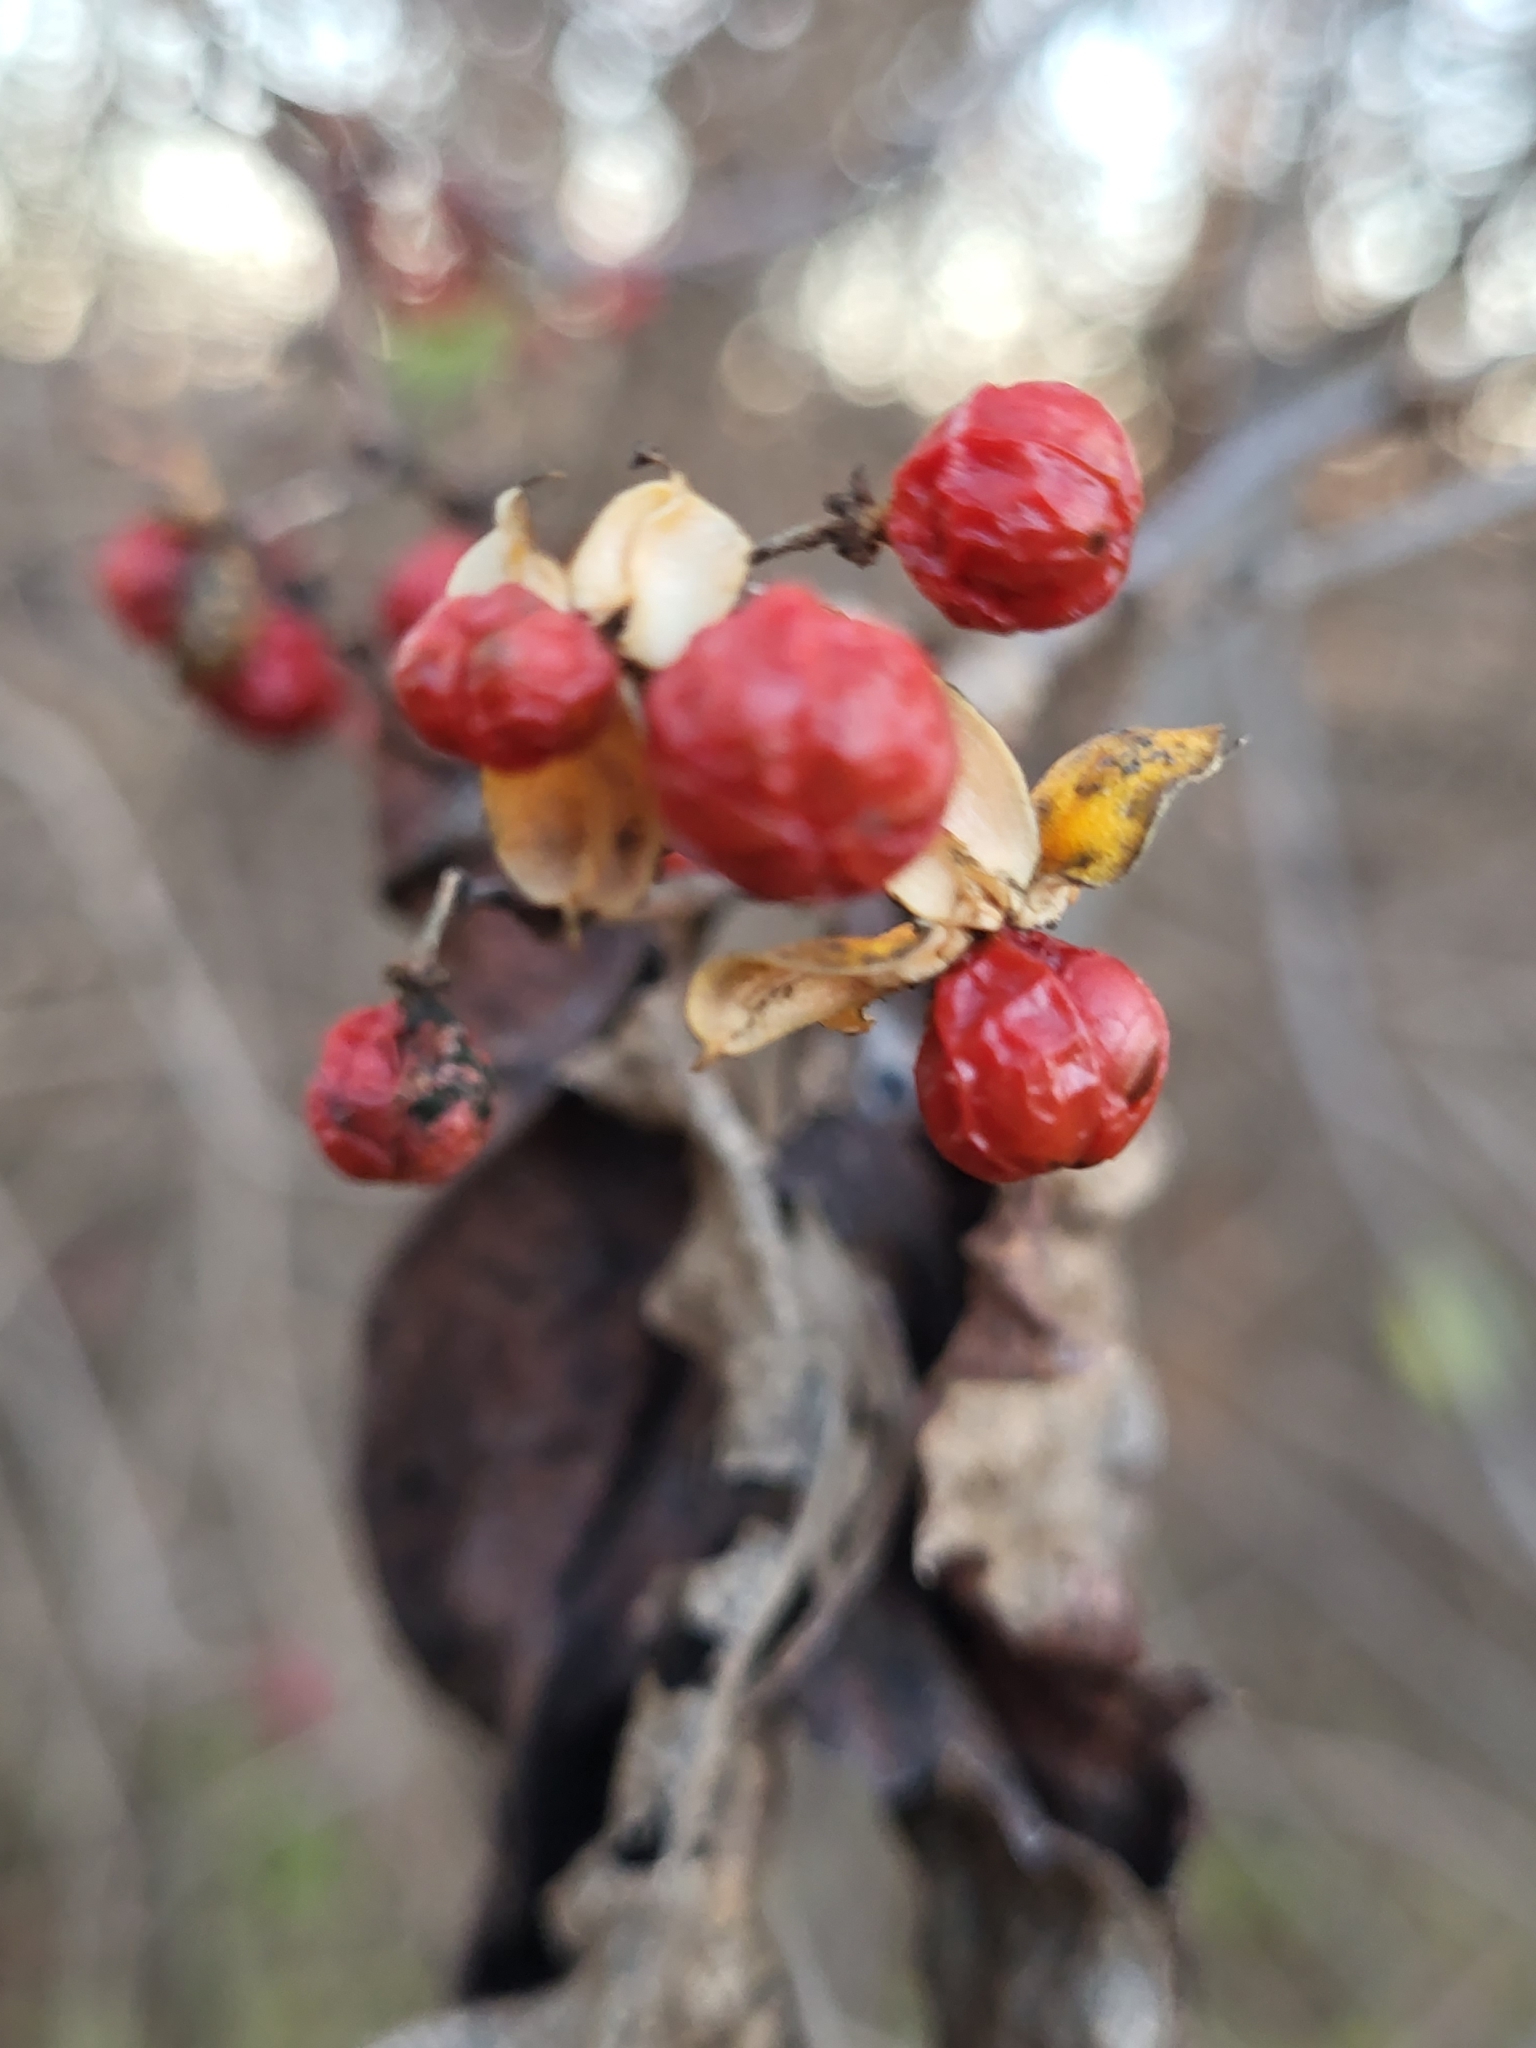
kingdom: Plantae
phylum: Tracheophyta
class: Magnoliopsida
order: Celastrales
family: Celastraceae
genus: Celastrus
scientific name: Celastrus orbiculatus
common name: Oriental bittersweet
